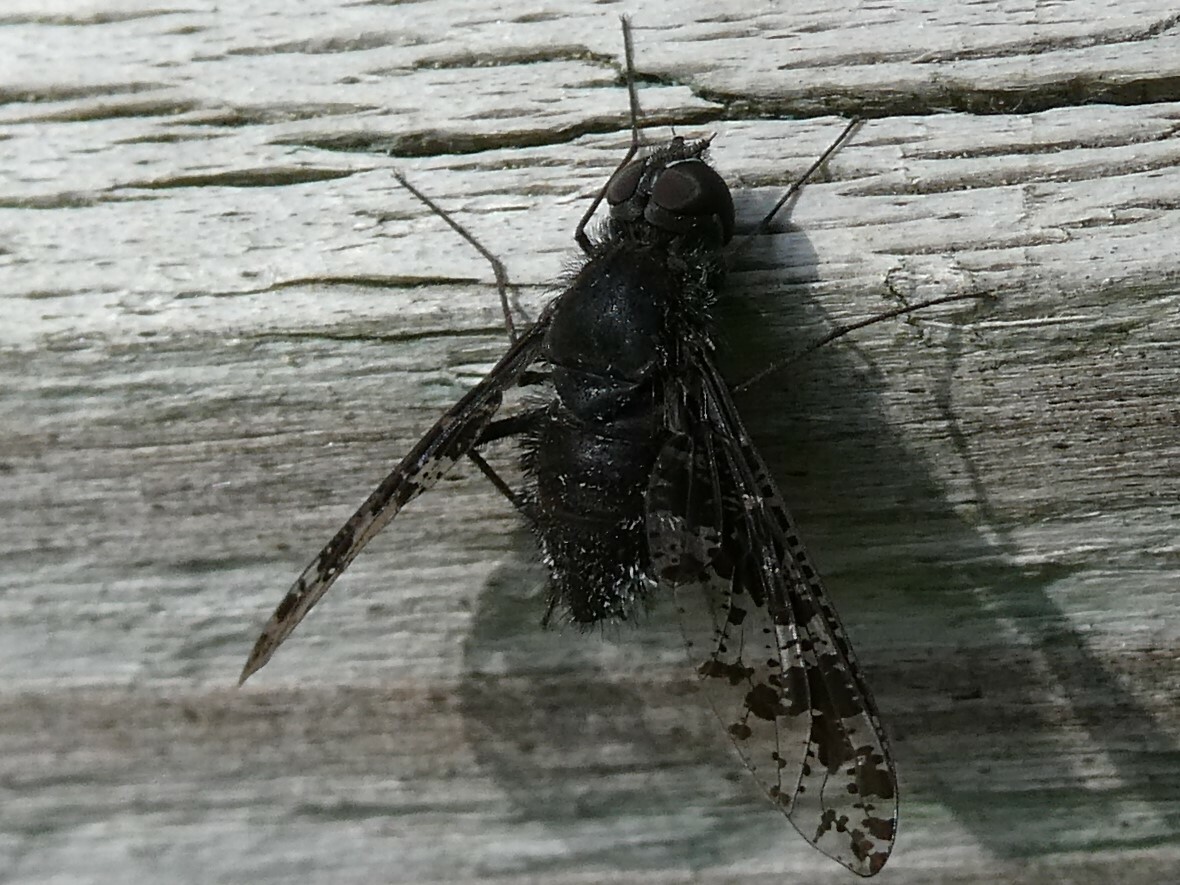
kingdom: Animalia
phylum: Arthropoda
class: Insecta
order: Diptera
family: Bombyliidae
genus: Anthrax
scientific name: Anthrax irroratus
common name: Spotted bee fly
